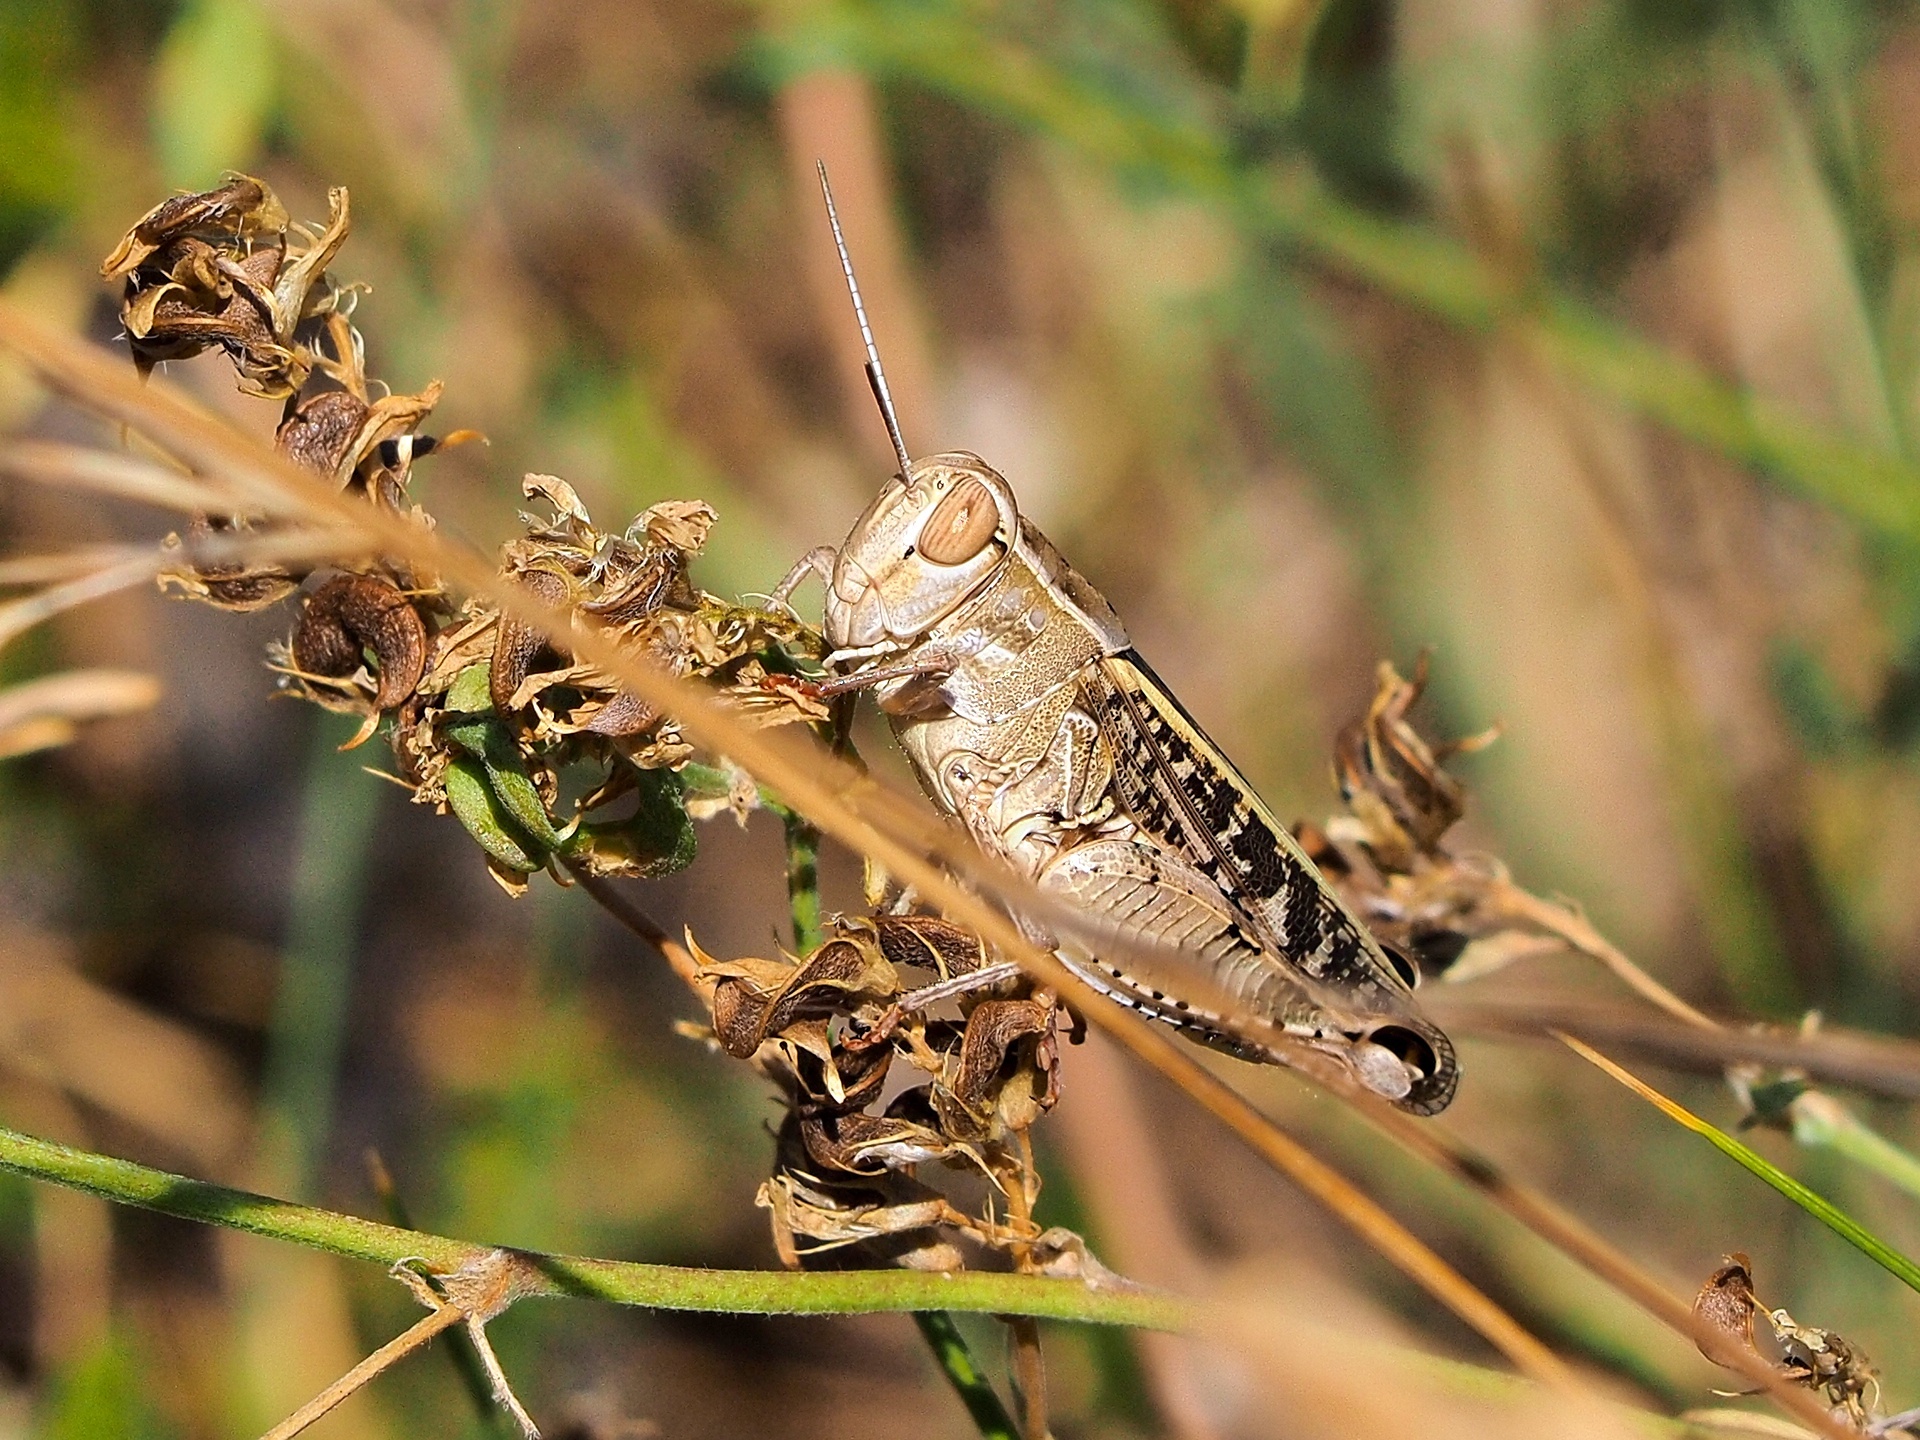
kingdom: Animalia
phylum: Arthropoda
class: Insecta
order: Orthoptera
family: Acrididae
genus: Calliptamus
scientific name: Calliptamus italicus
